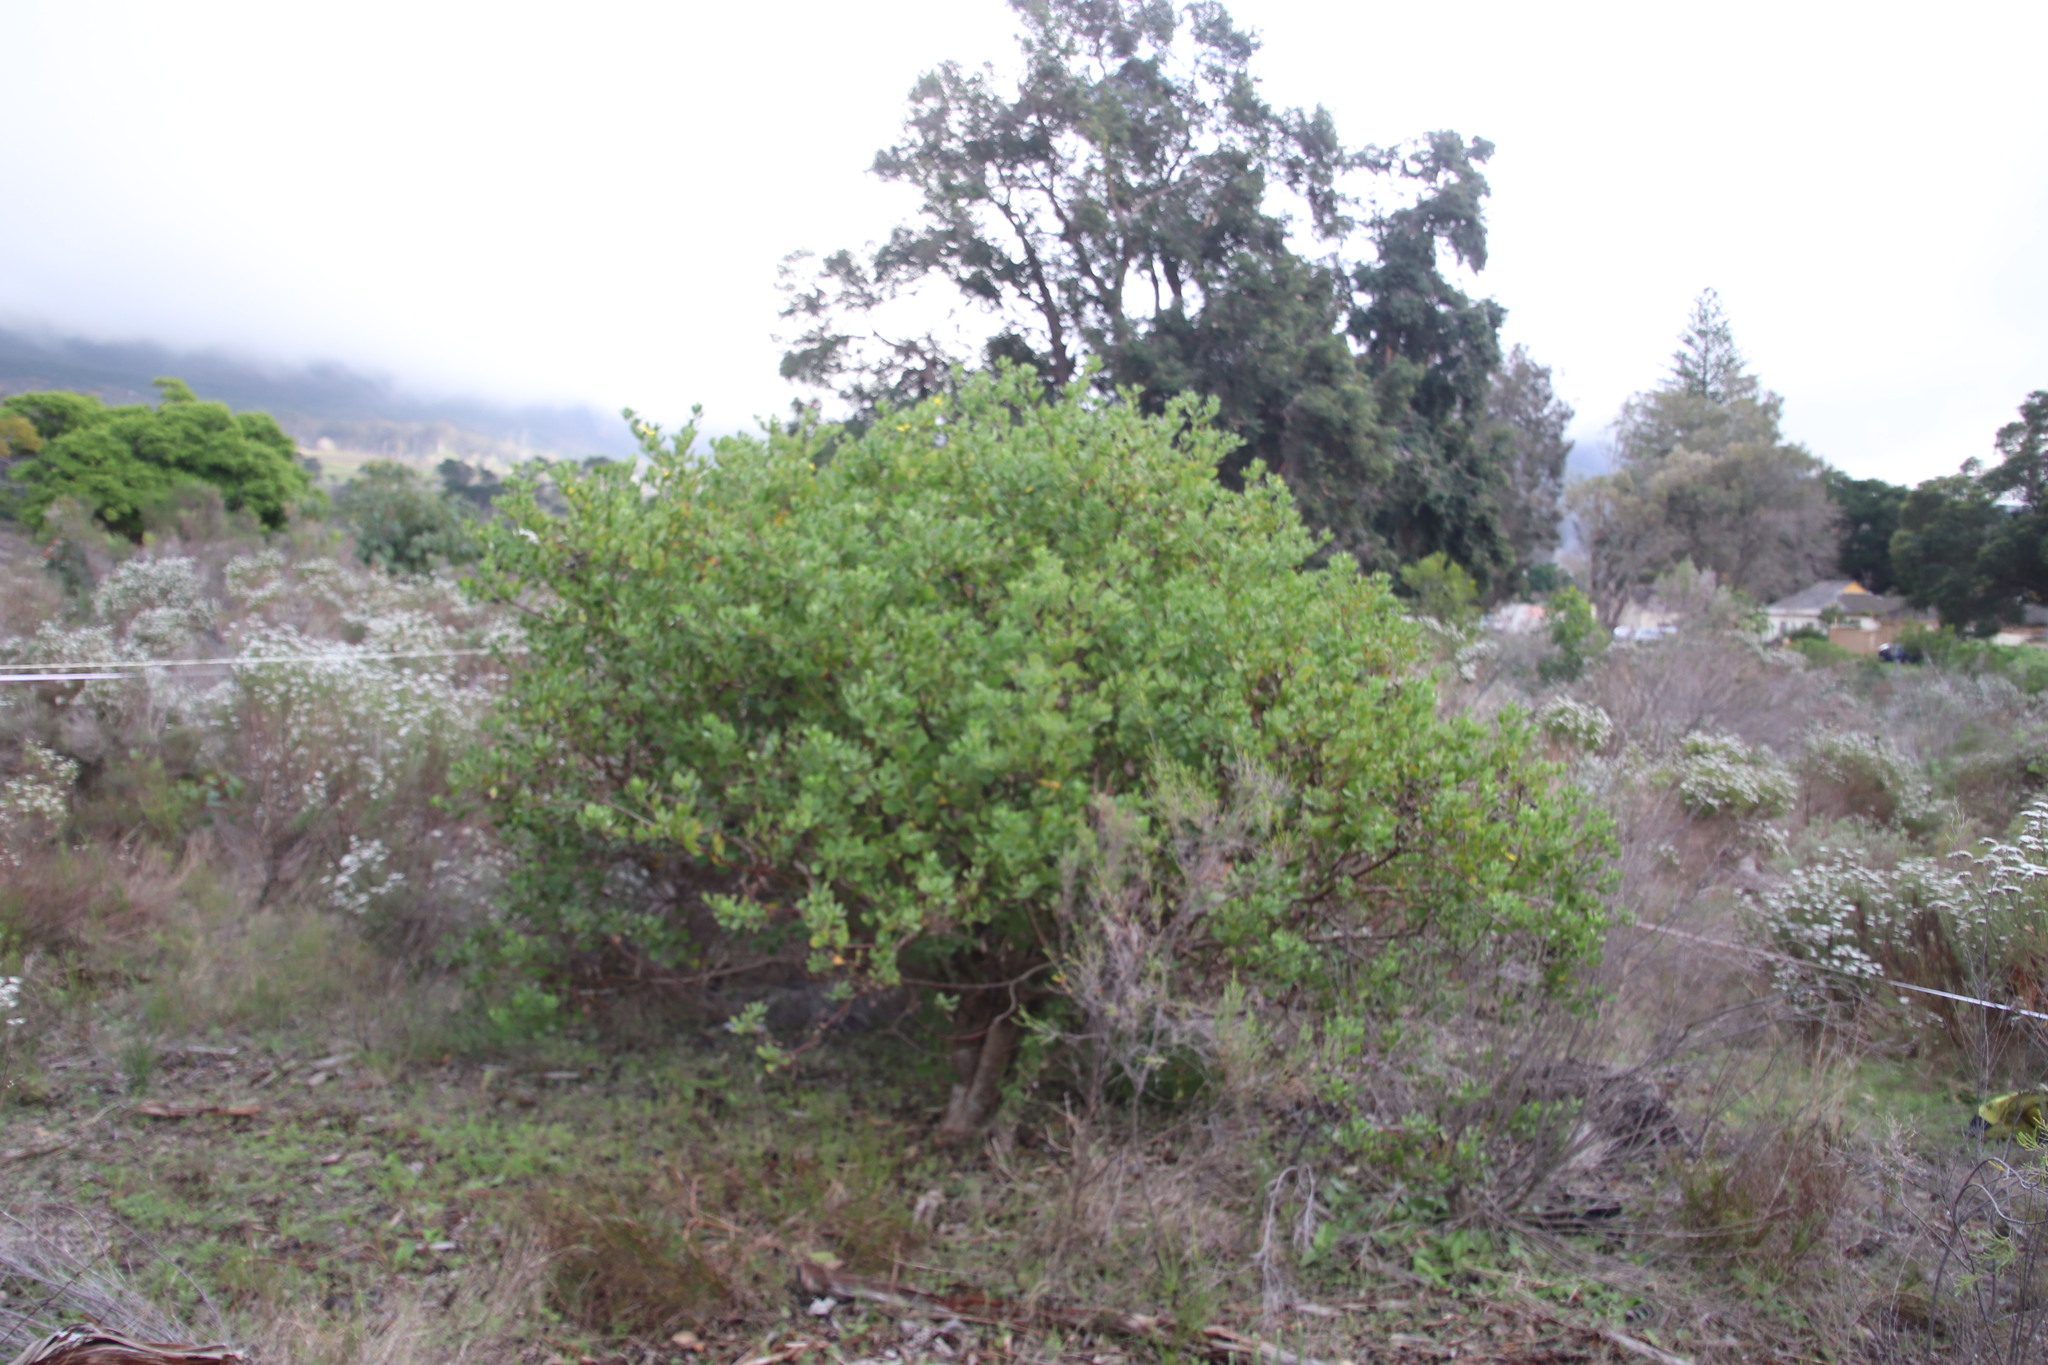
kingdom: Plantae
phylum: Tracheophyta
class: Magnoliopsida
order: Asterales
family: Asteraceae
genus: Osteospermum
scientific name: Osteospermum moniliferum
